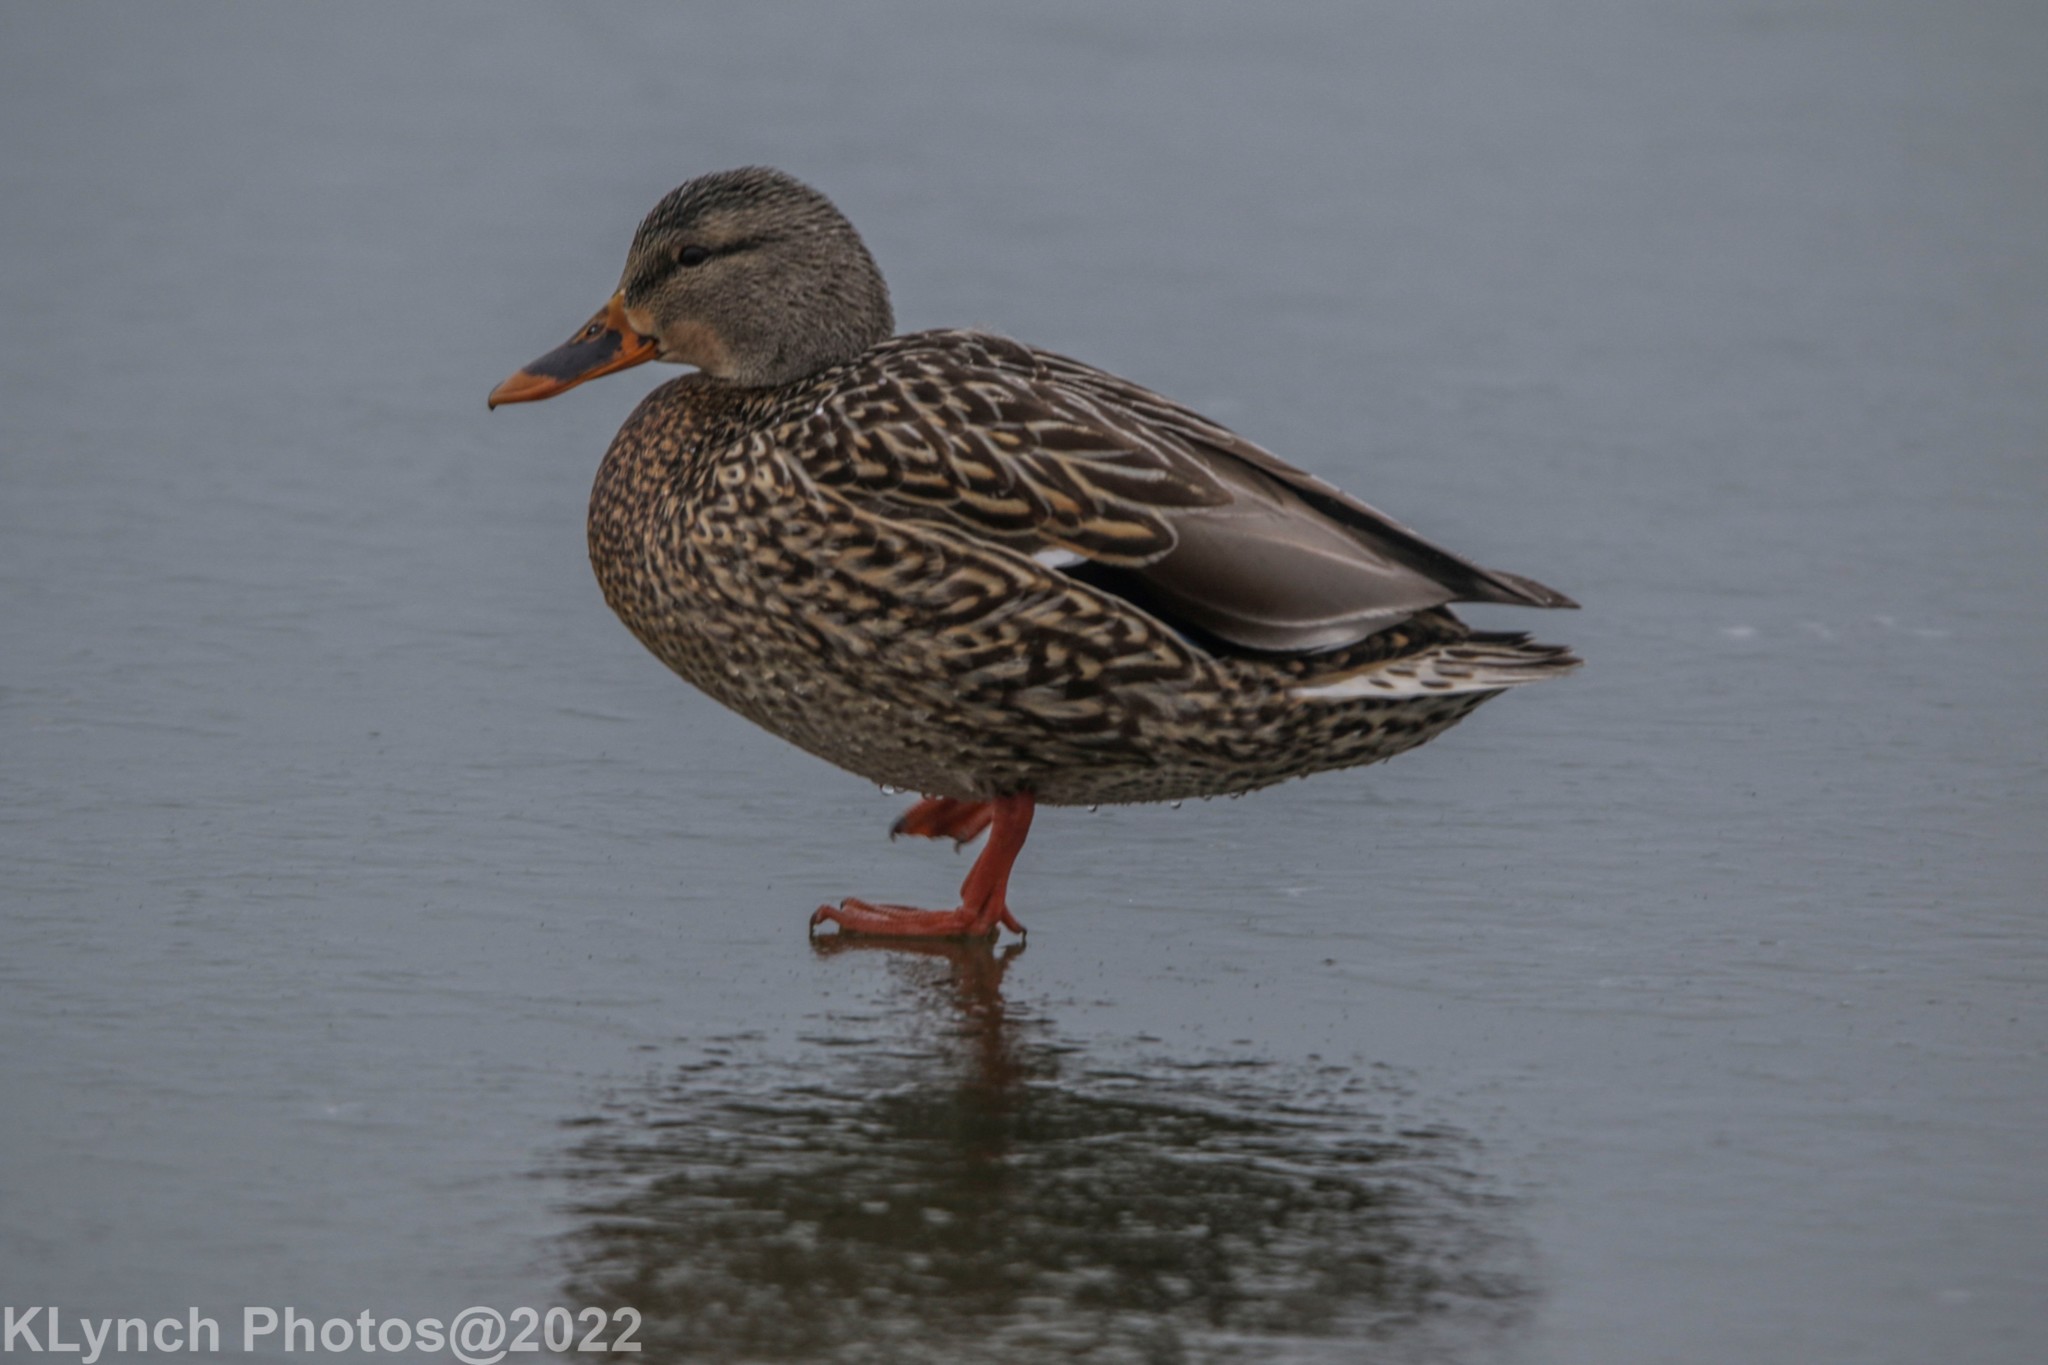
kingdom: Animalia
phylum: Chordata
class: Aves
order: Anseriformes
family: Anatidae
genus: Anas
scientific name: Anas platyrhynchos
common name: Mallard
